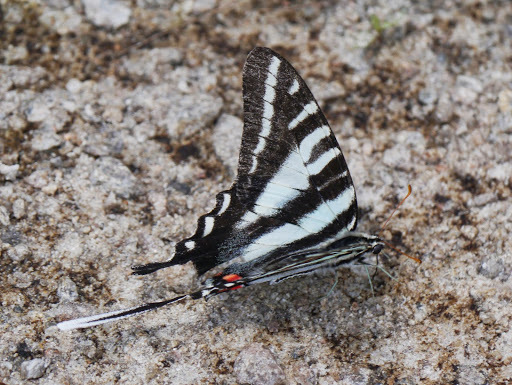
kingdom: Animalia
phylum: Arthropoda
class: Insecta
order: Lepidoptera
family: Papilionidae
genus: Protographium
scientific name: Protographium marcellus
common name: Zebra swallowtail
